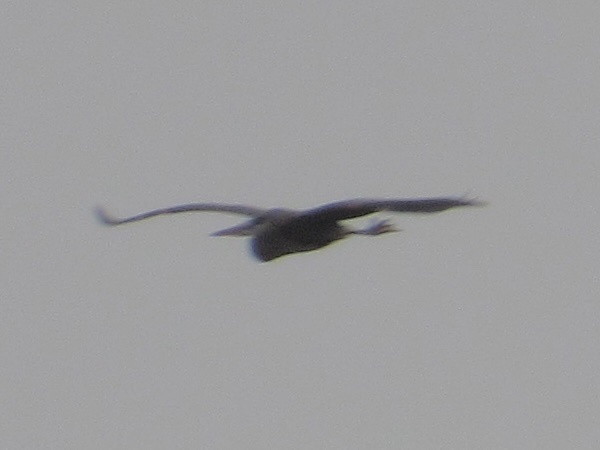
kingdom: Animalia
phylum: Chordata
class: Aves
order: Pelecaniformes
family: Ardeidae
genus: Ardea
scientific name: Ardea herodias
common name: Great blue heron
